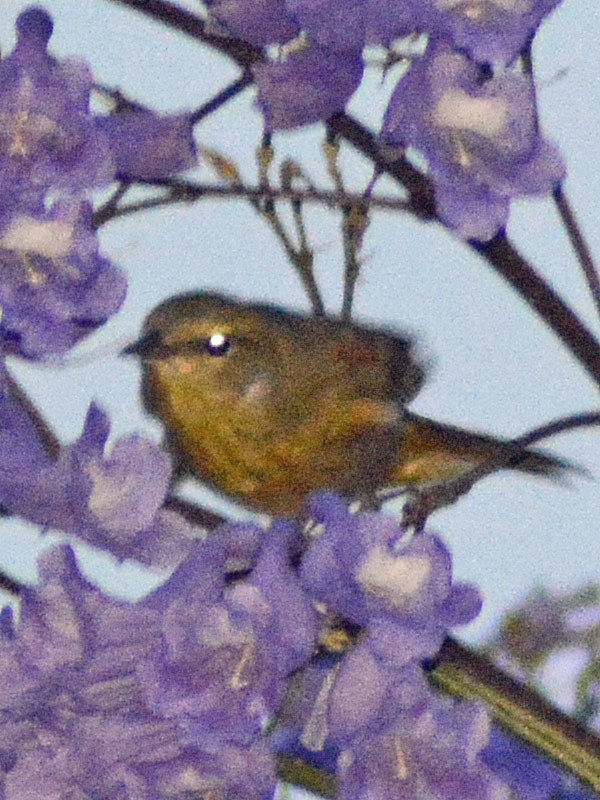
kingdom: Animalia
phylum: Chordata
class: Aves
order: Passeriformes
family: Parulidae
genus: Leiothlypis
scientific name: Leiothlypis celata
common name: Orange-crowned warbler
